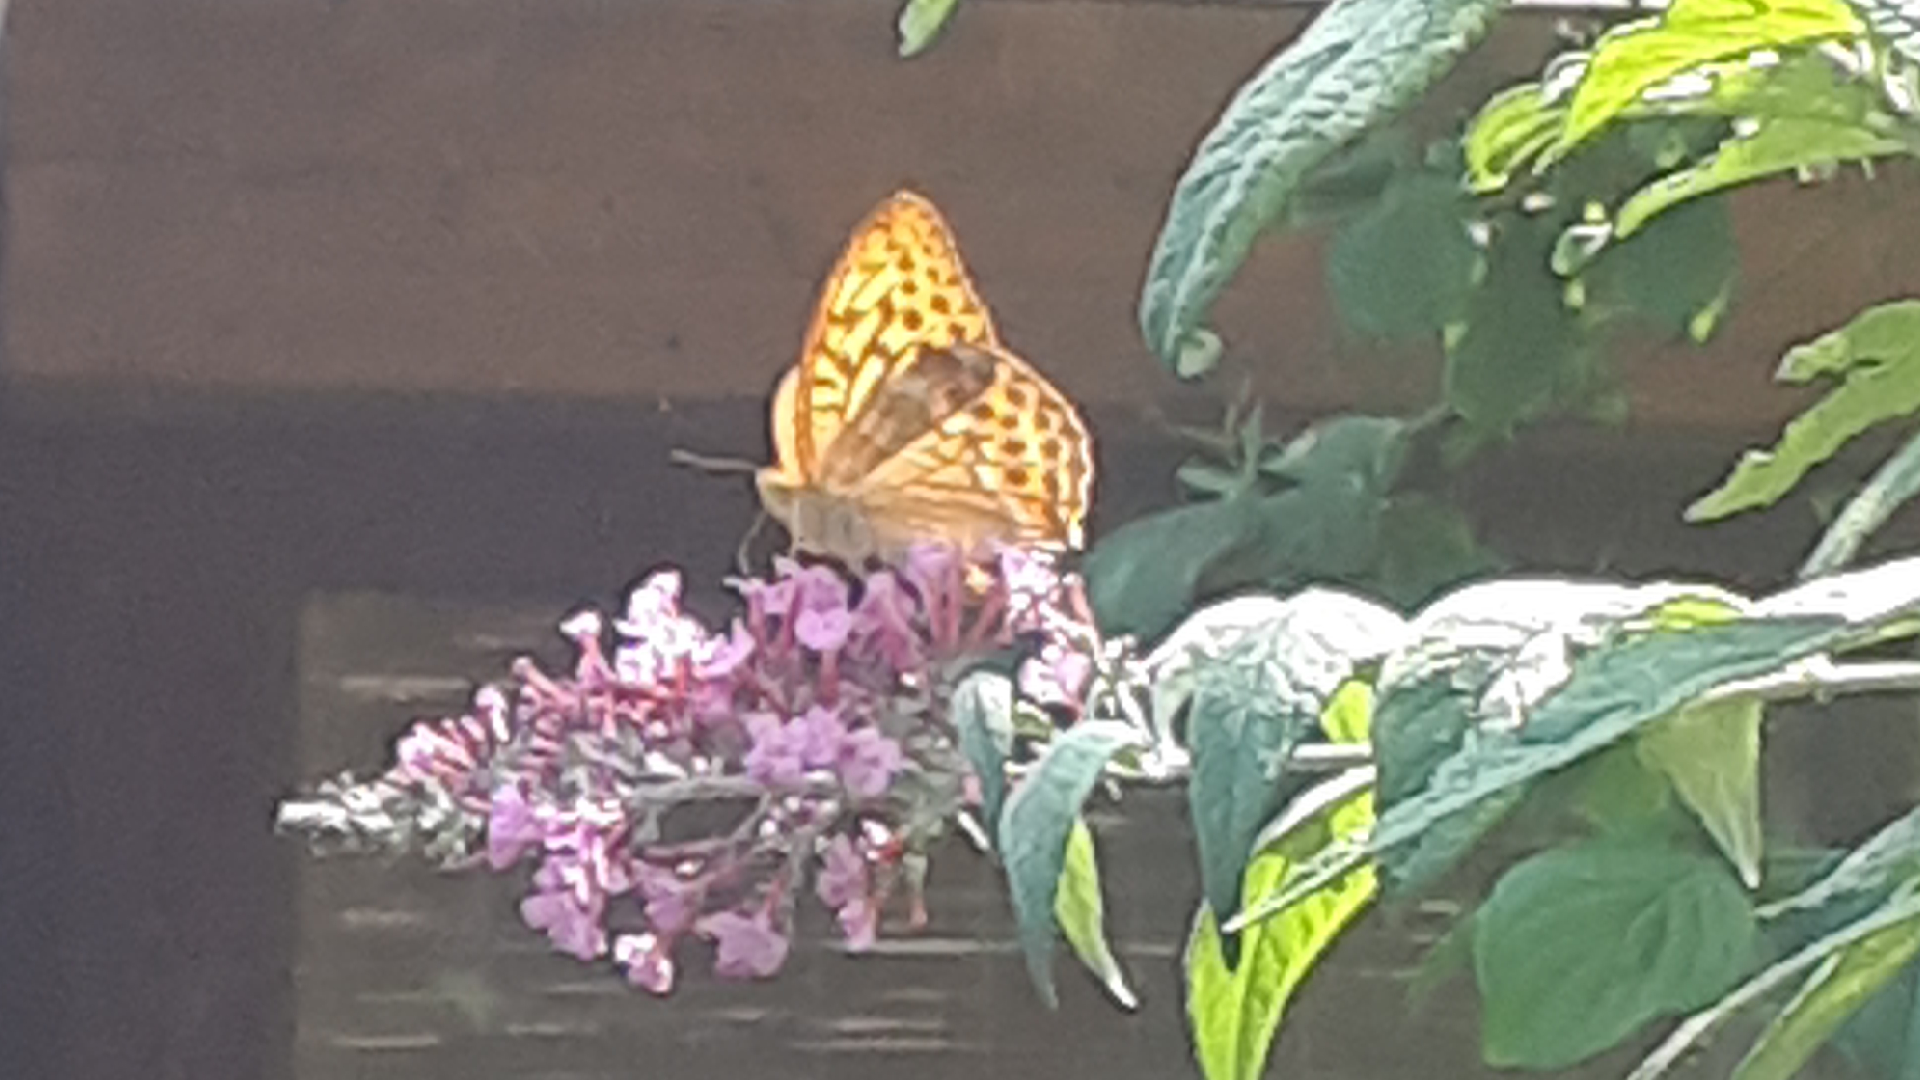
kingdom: Animalia
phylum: Arthropoda
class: Insecta
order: Lepidoptera
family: Nymphalidae
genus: Argynnis
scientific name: Argynnis paphia
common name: Silver-washed fritillary
